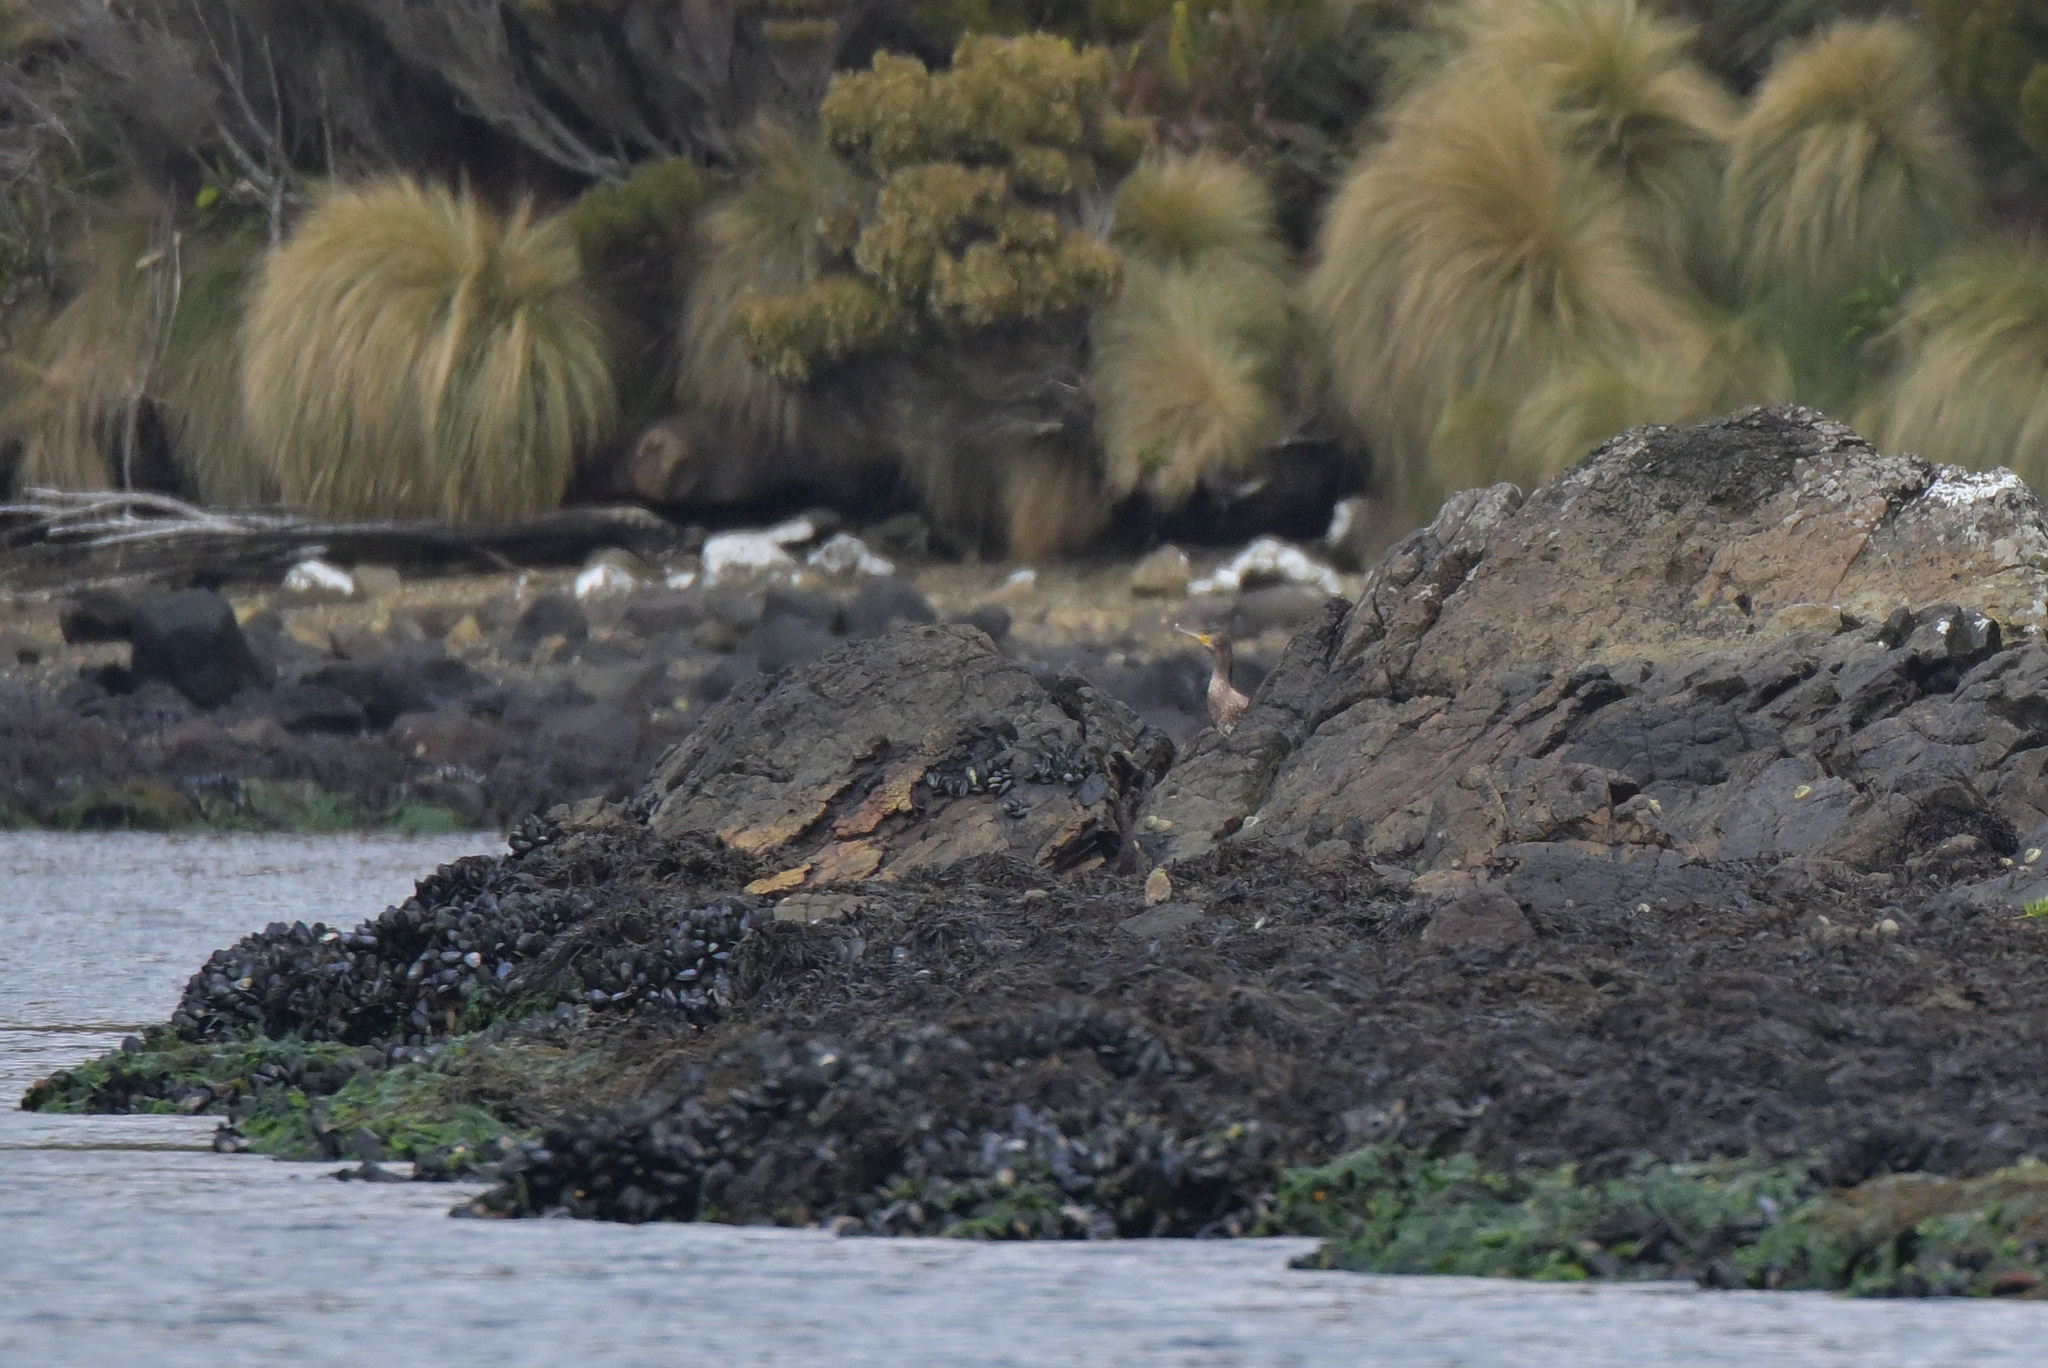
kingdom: Animalia
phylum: Chordata
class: Aves
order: Suliformes
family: Phalacrocoracidae
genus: Phalacrocorax
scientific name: Phalacrocorax carbo
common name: Great cormorant
